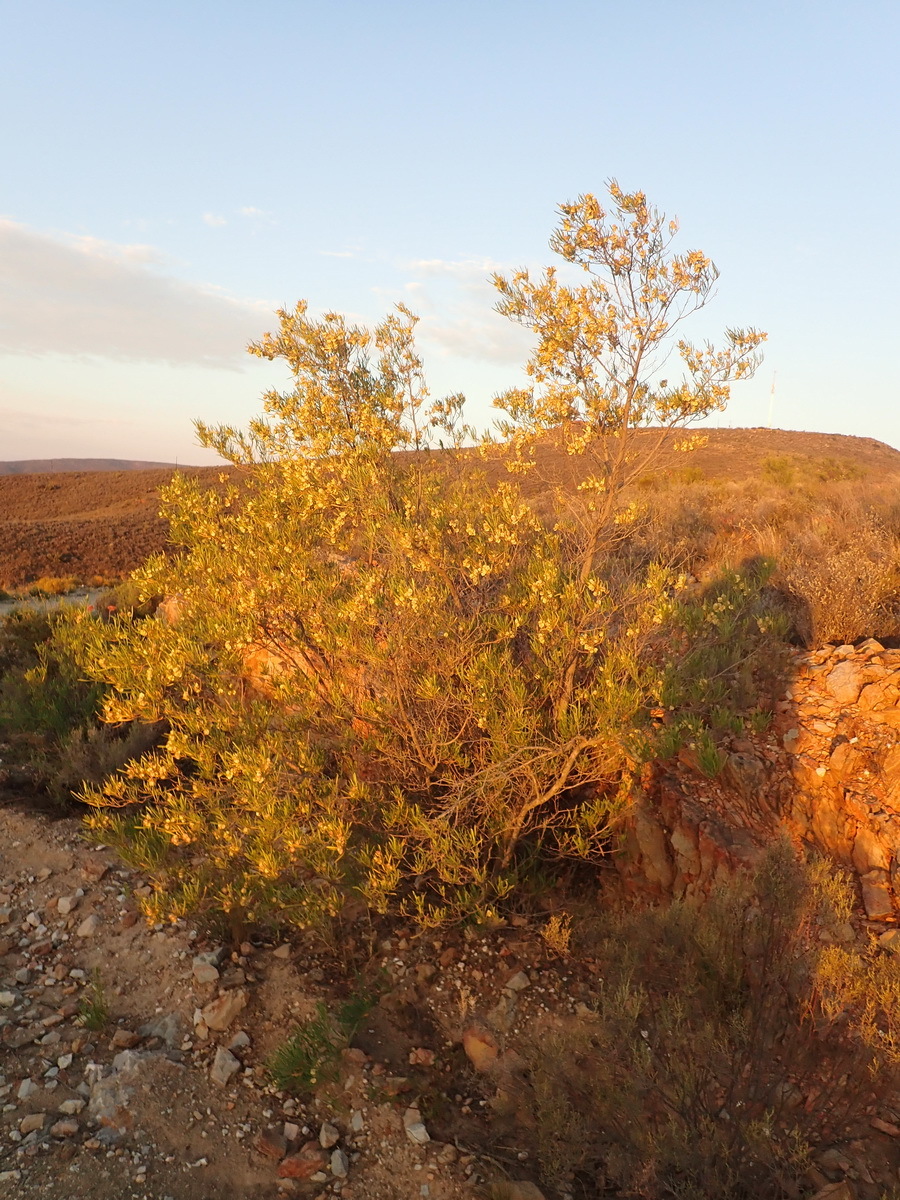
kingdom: Plantae
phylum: Tracheophyta
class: Magnoliopsida
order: Sapindales
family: Sapindaceae
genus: Dodonaea
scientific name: Dodonaea viscosa
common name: Hopbush
